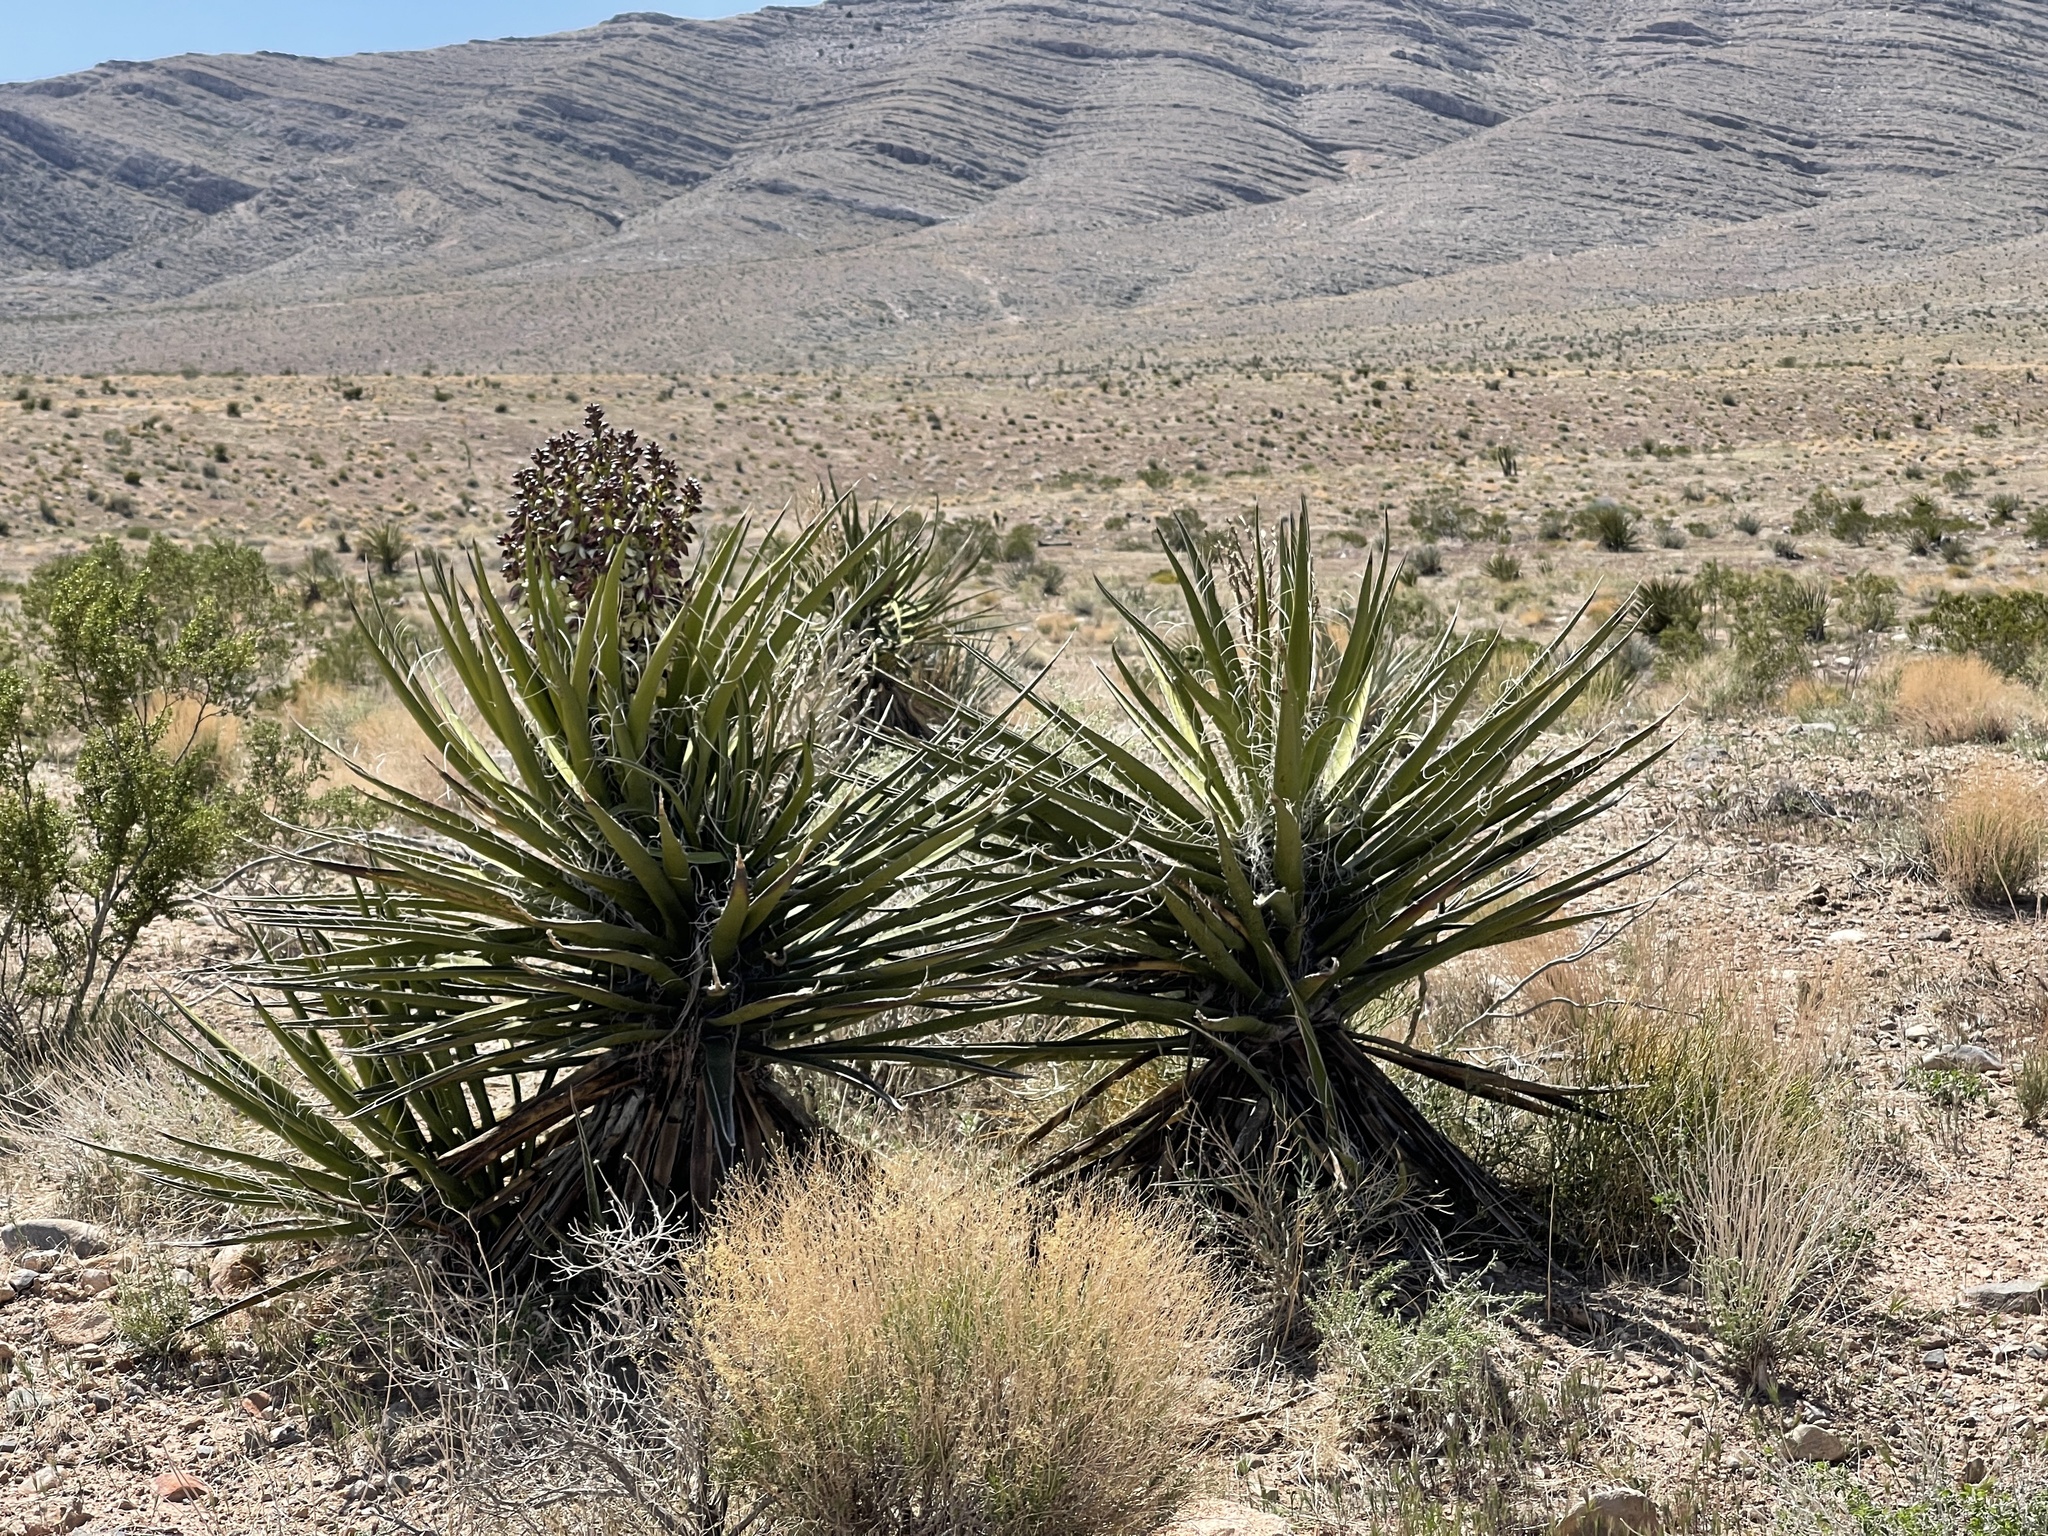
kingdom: Plantae
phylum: Tracheophyta
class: Liliopsida
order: Asparagales
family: Asparagaceae
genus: Yucca
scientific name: Yucca schidigera
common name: Mojave yucca
